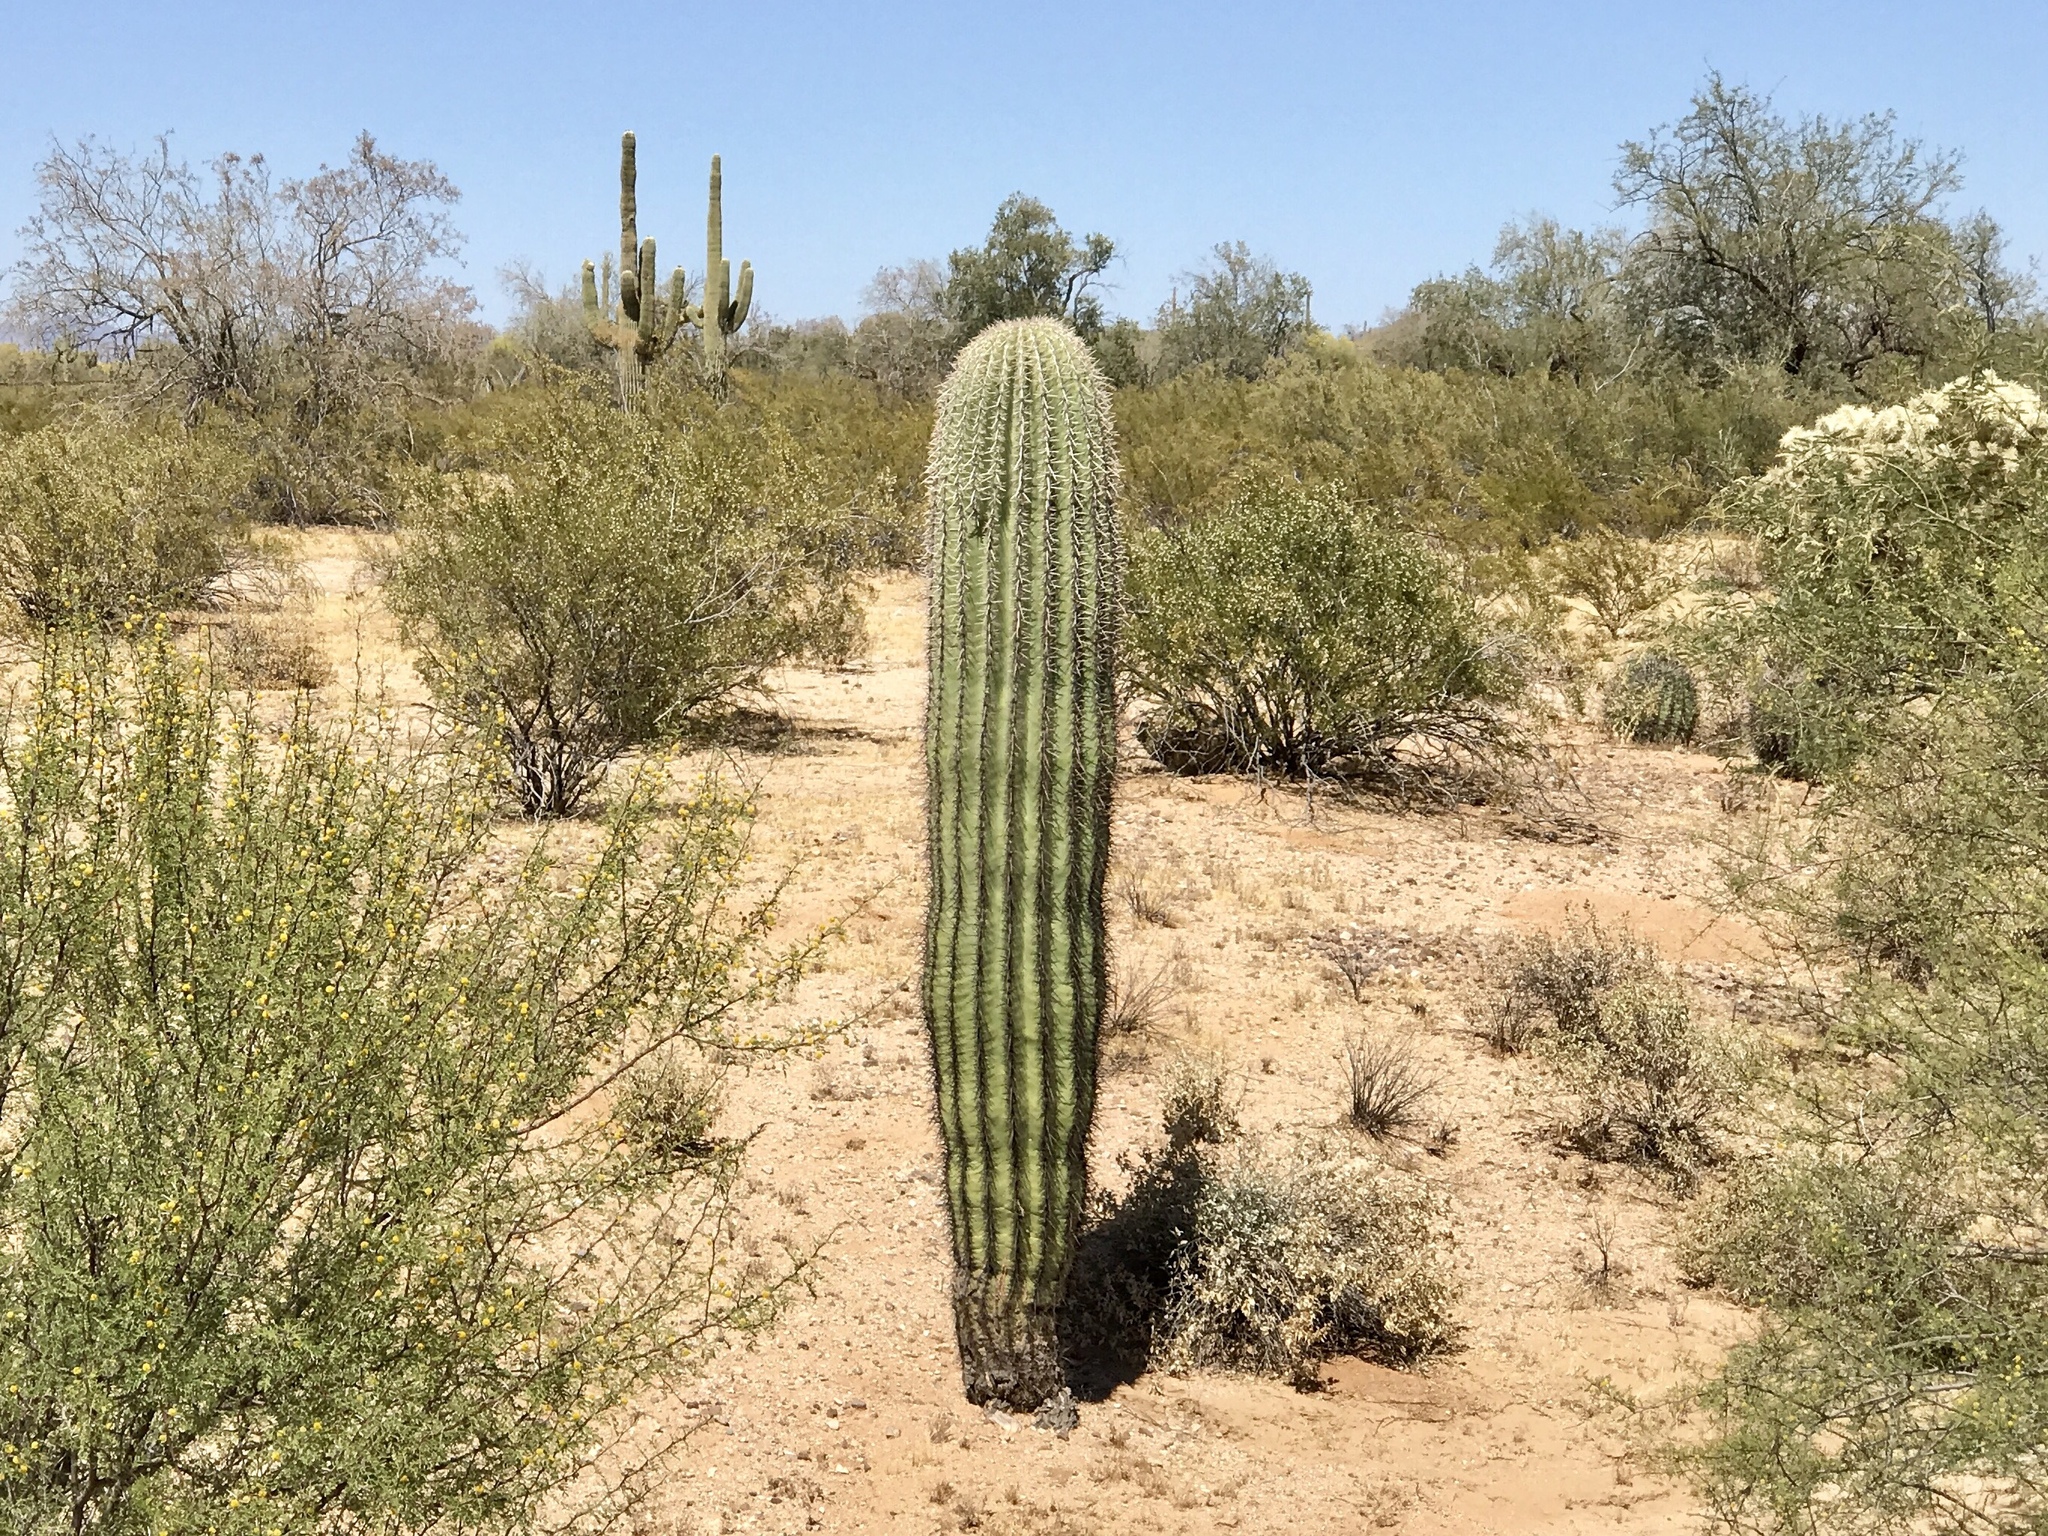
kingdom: Plantae
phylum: Tracheophyta
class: Magnoliopsida
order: Caryophyllales
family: Cactaceae
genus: Carnegiea
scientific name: Carnegiea gigantea
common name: Saguaro
